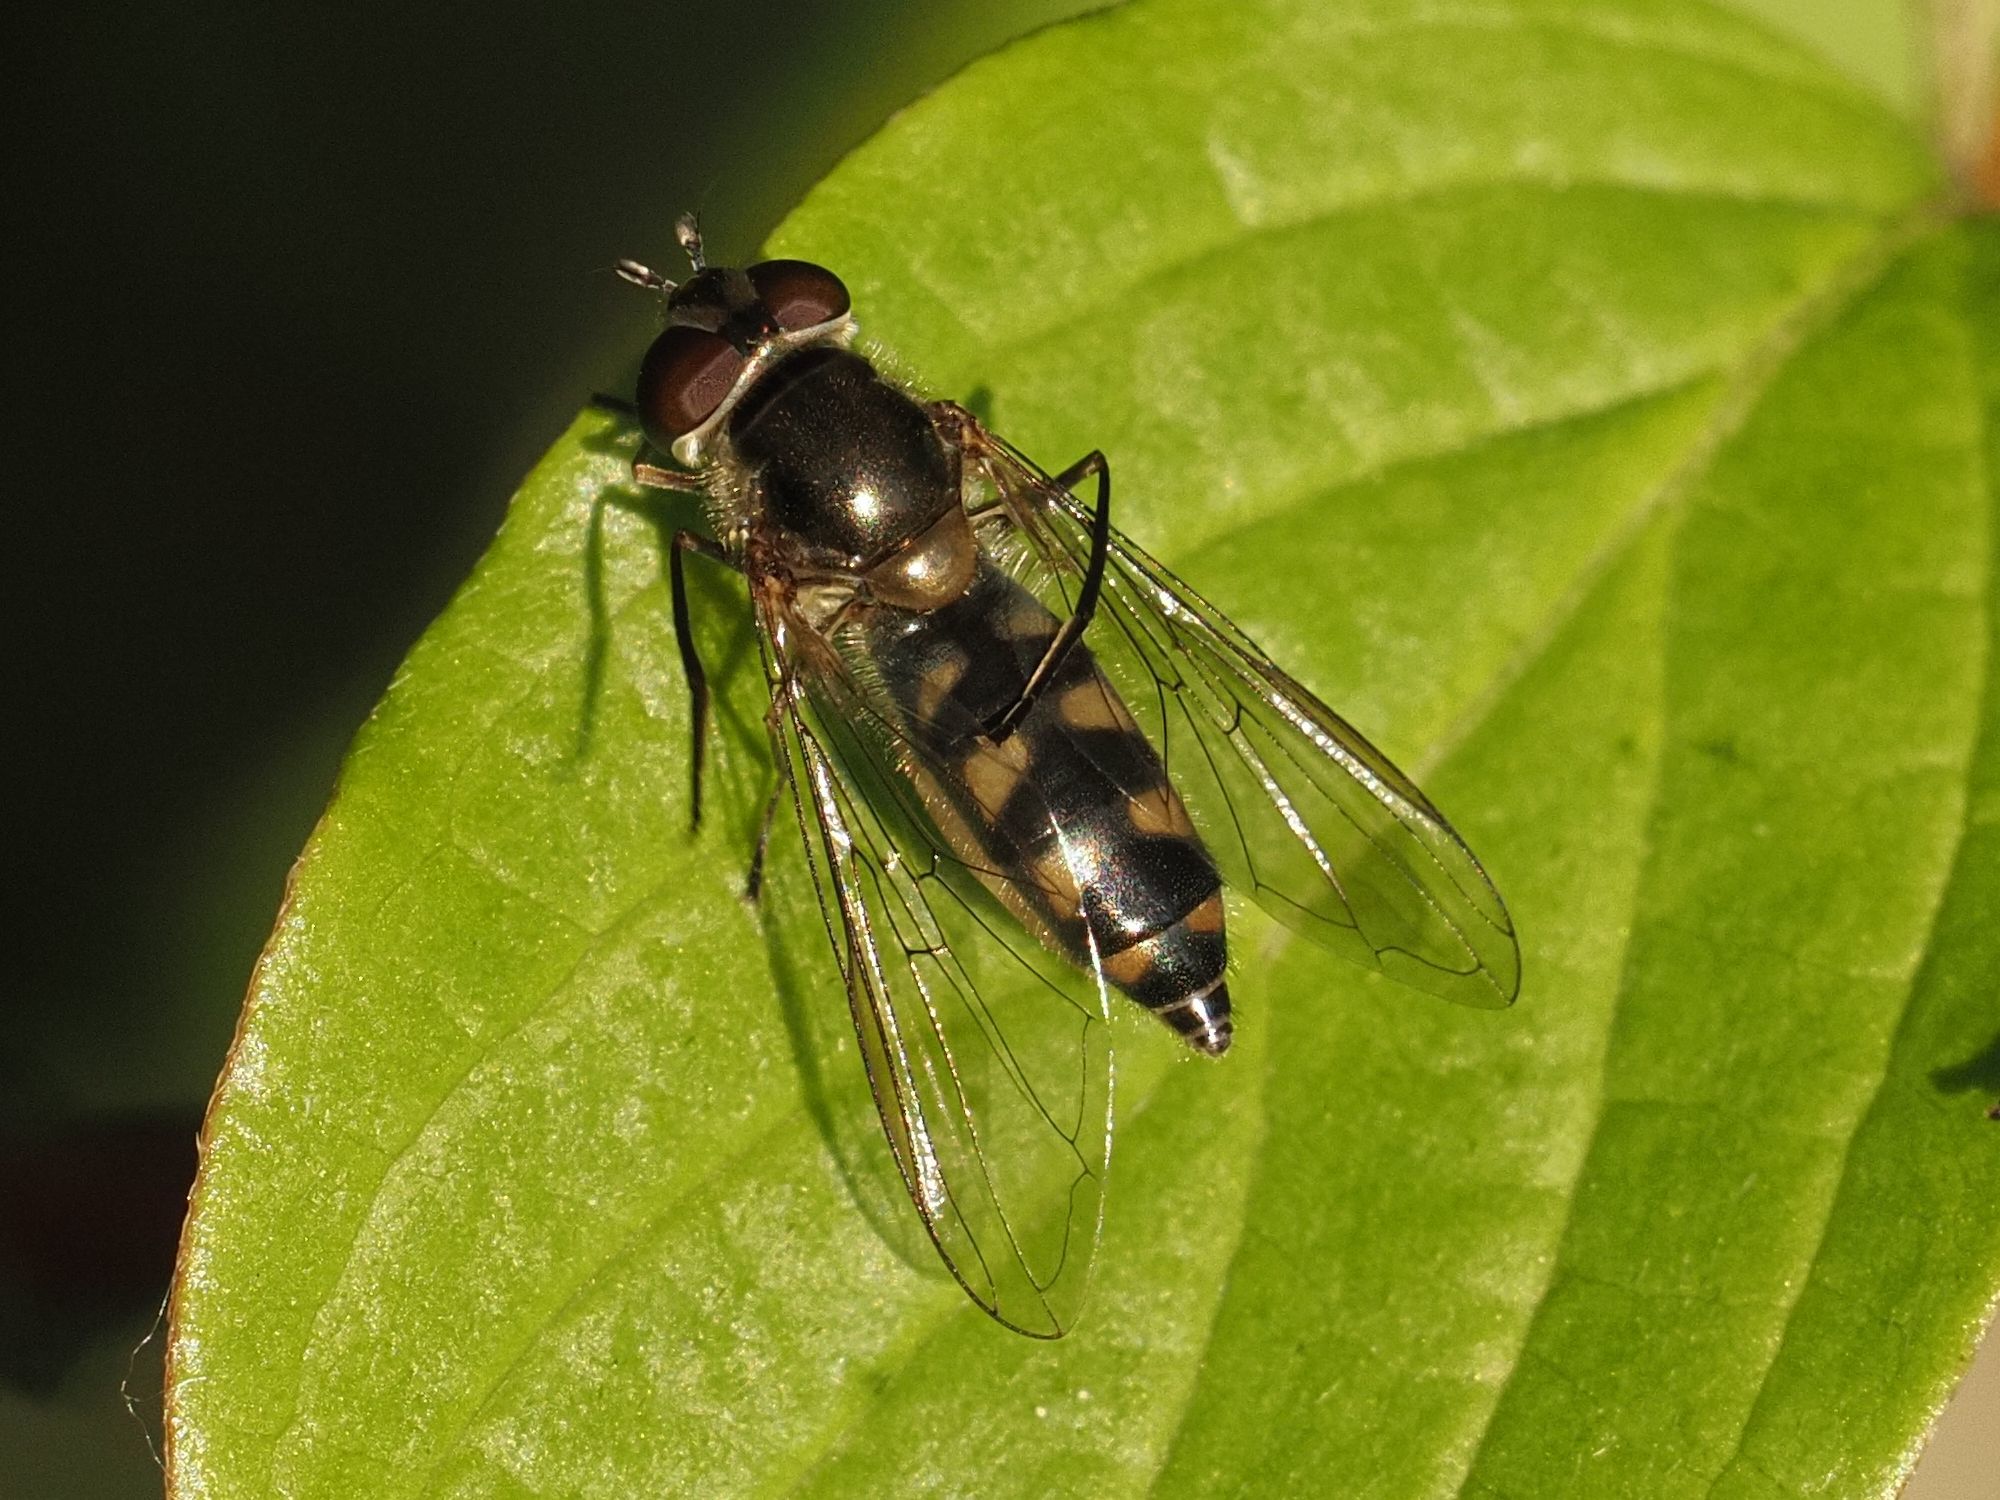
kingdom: Animalia
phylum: Arthropoda
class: Insecta
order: Diptera
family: Syrphidae
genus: Meliscaeva
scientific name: Meliscaeva auricollis
